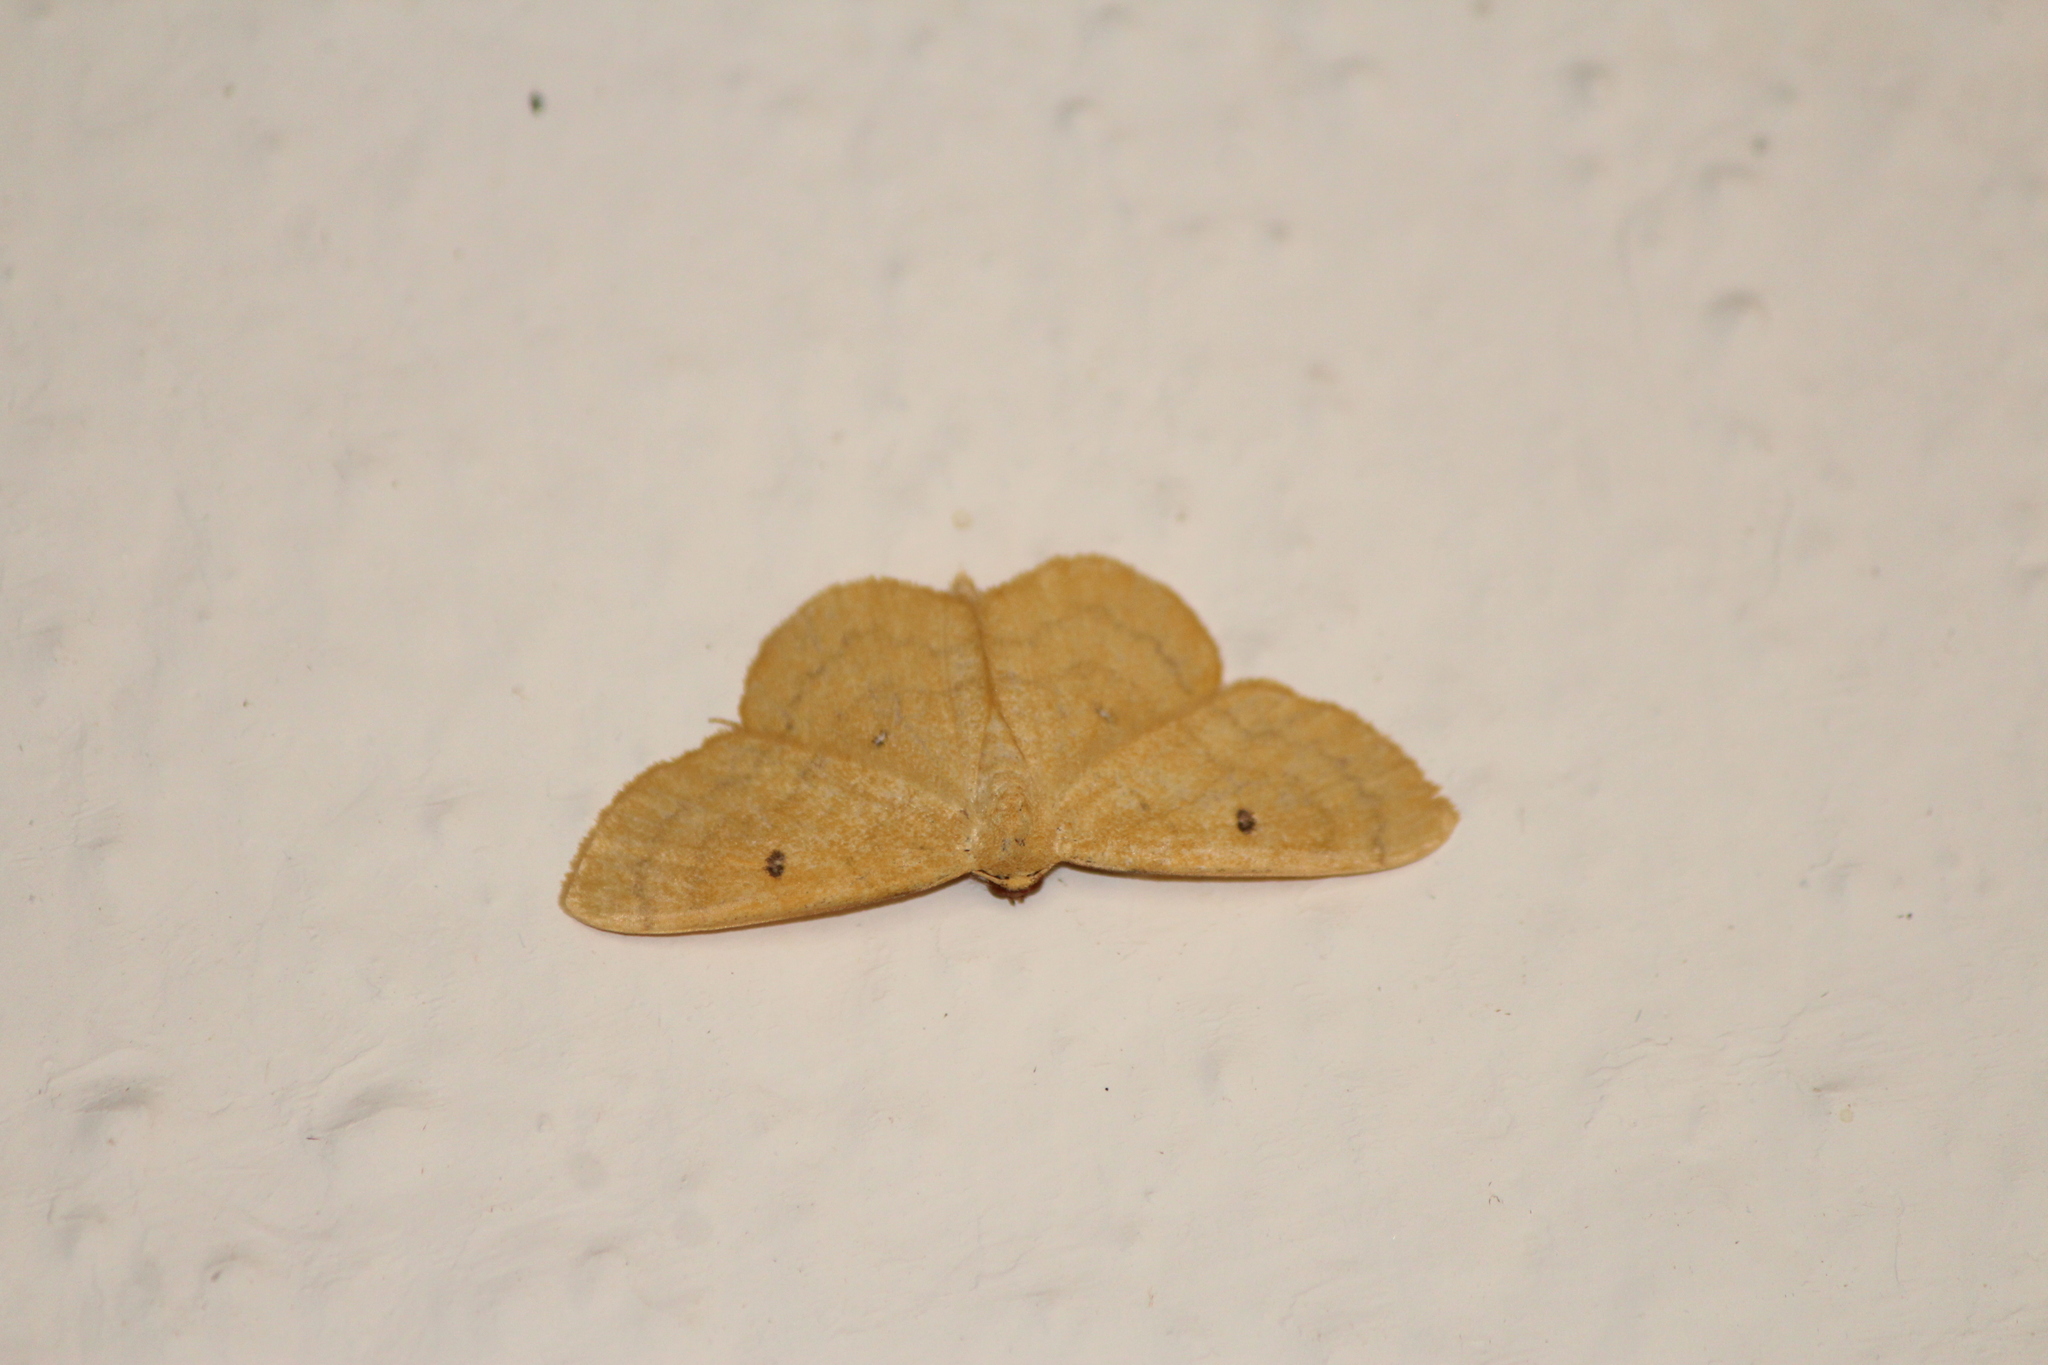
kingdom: Animalia
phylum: Arthropoda
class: Insecta
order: Lepidoptera
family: Geometridae
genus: Semaeopus
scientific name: Semaeopus ella
